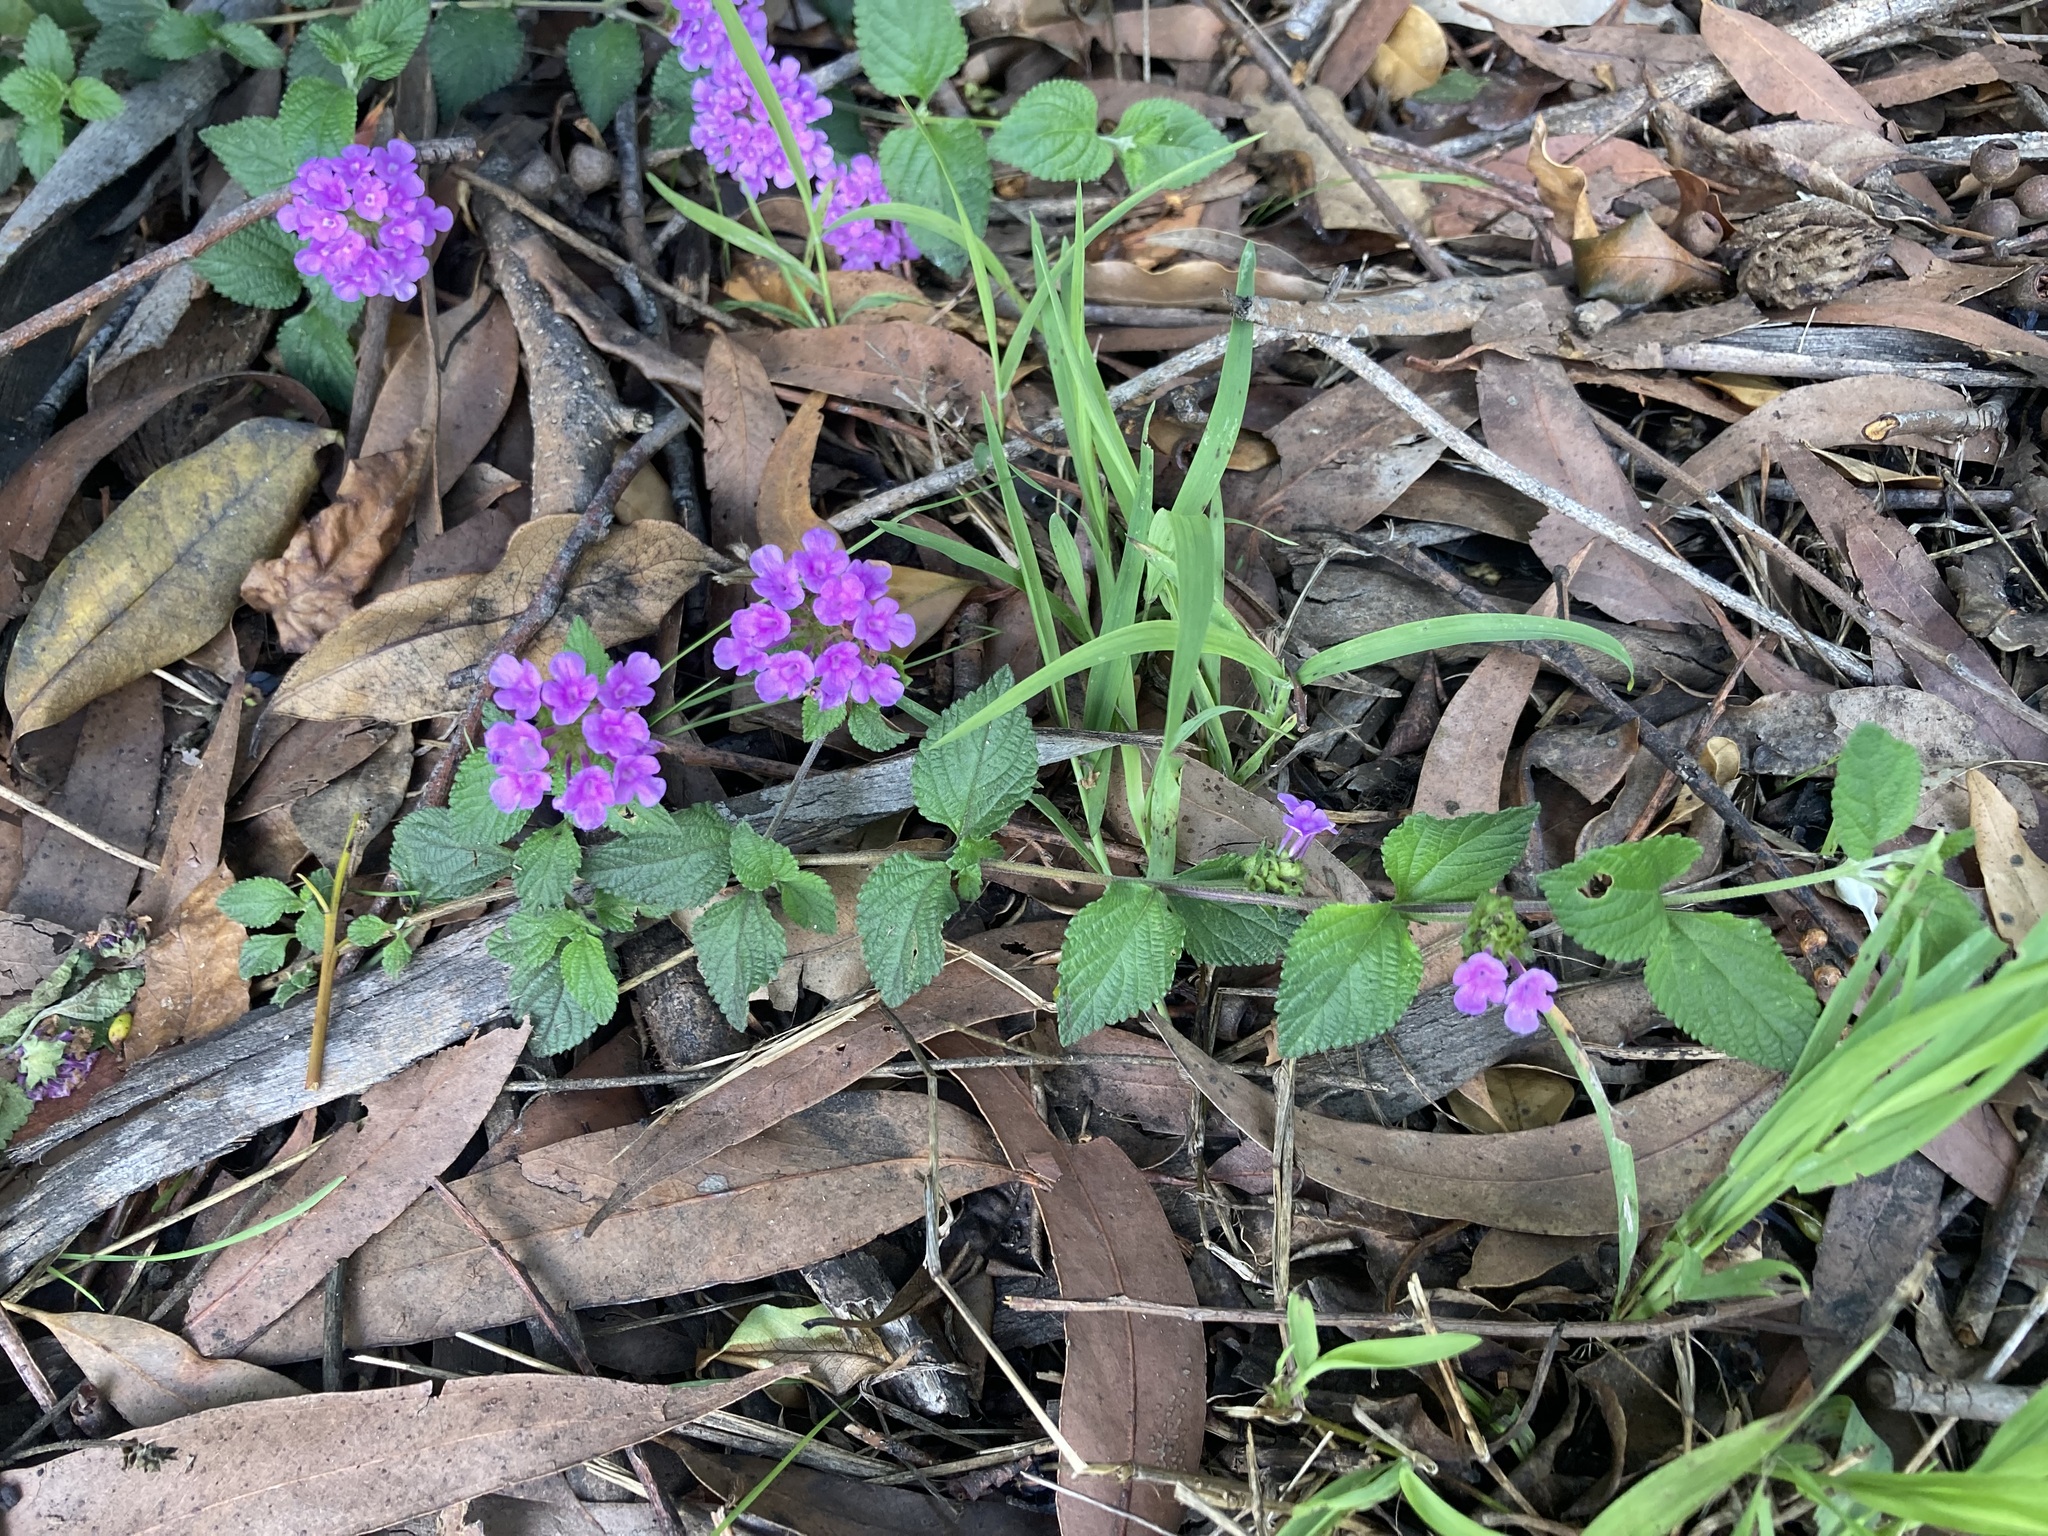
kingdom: Plantae
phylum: Tracheophyta
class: Magnoliopsida
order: Lamiales
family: Verbenaceae
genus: Lantana
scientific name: Lantana montevidensis
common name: Trailing shrubverbena
